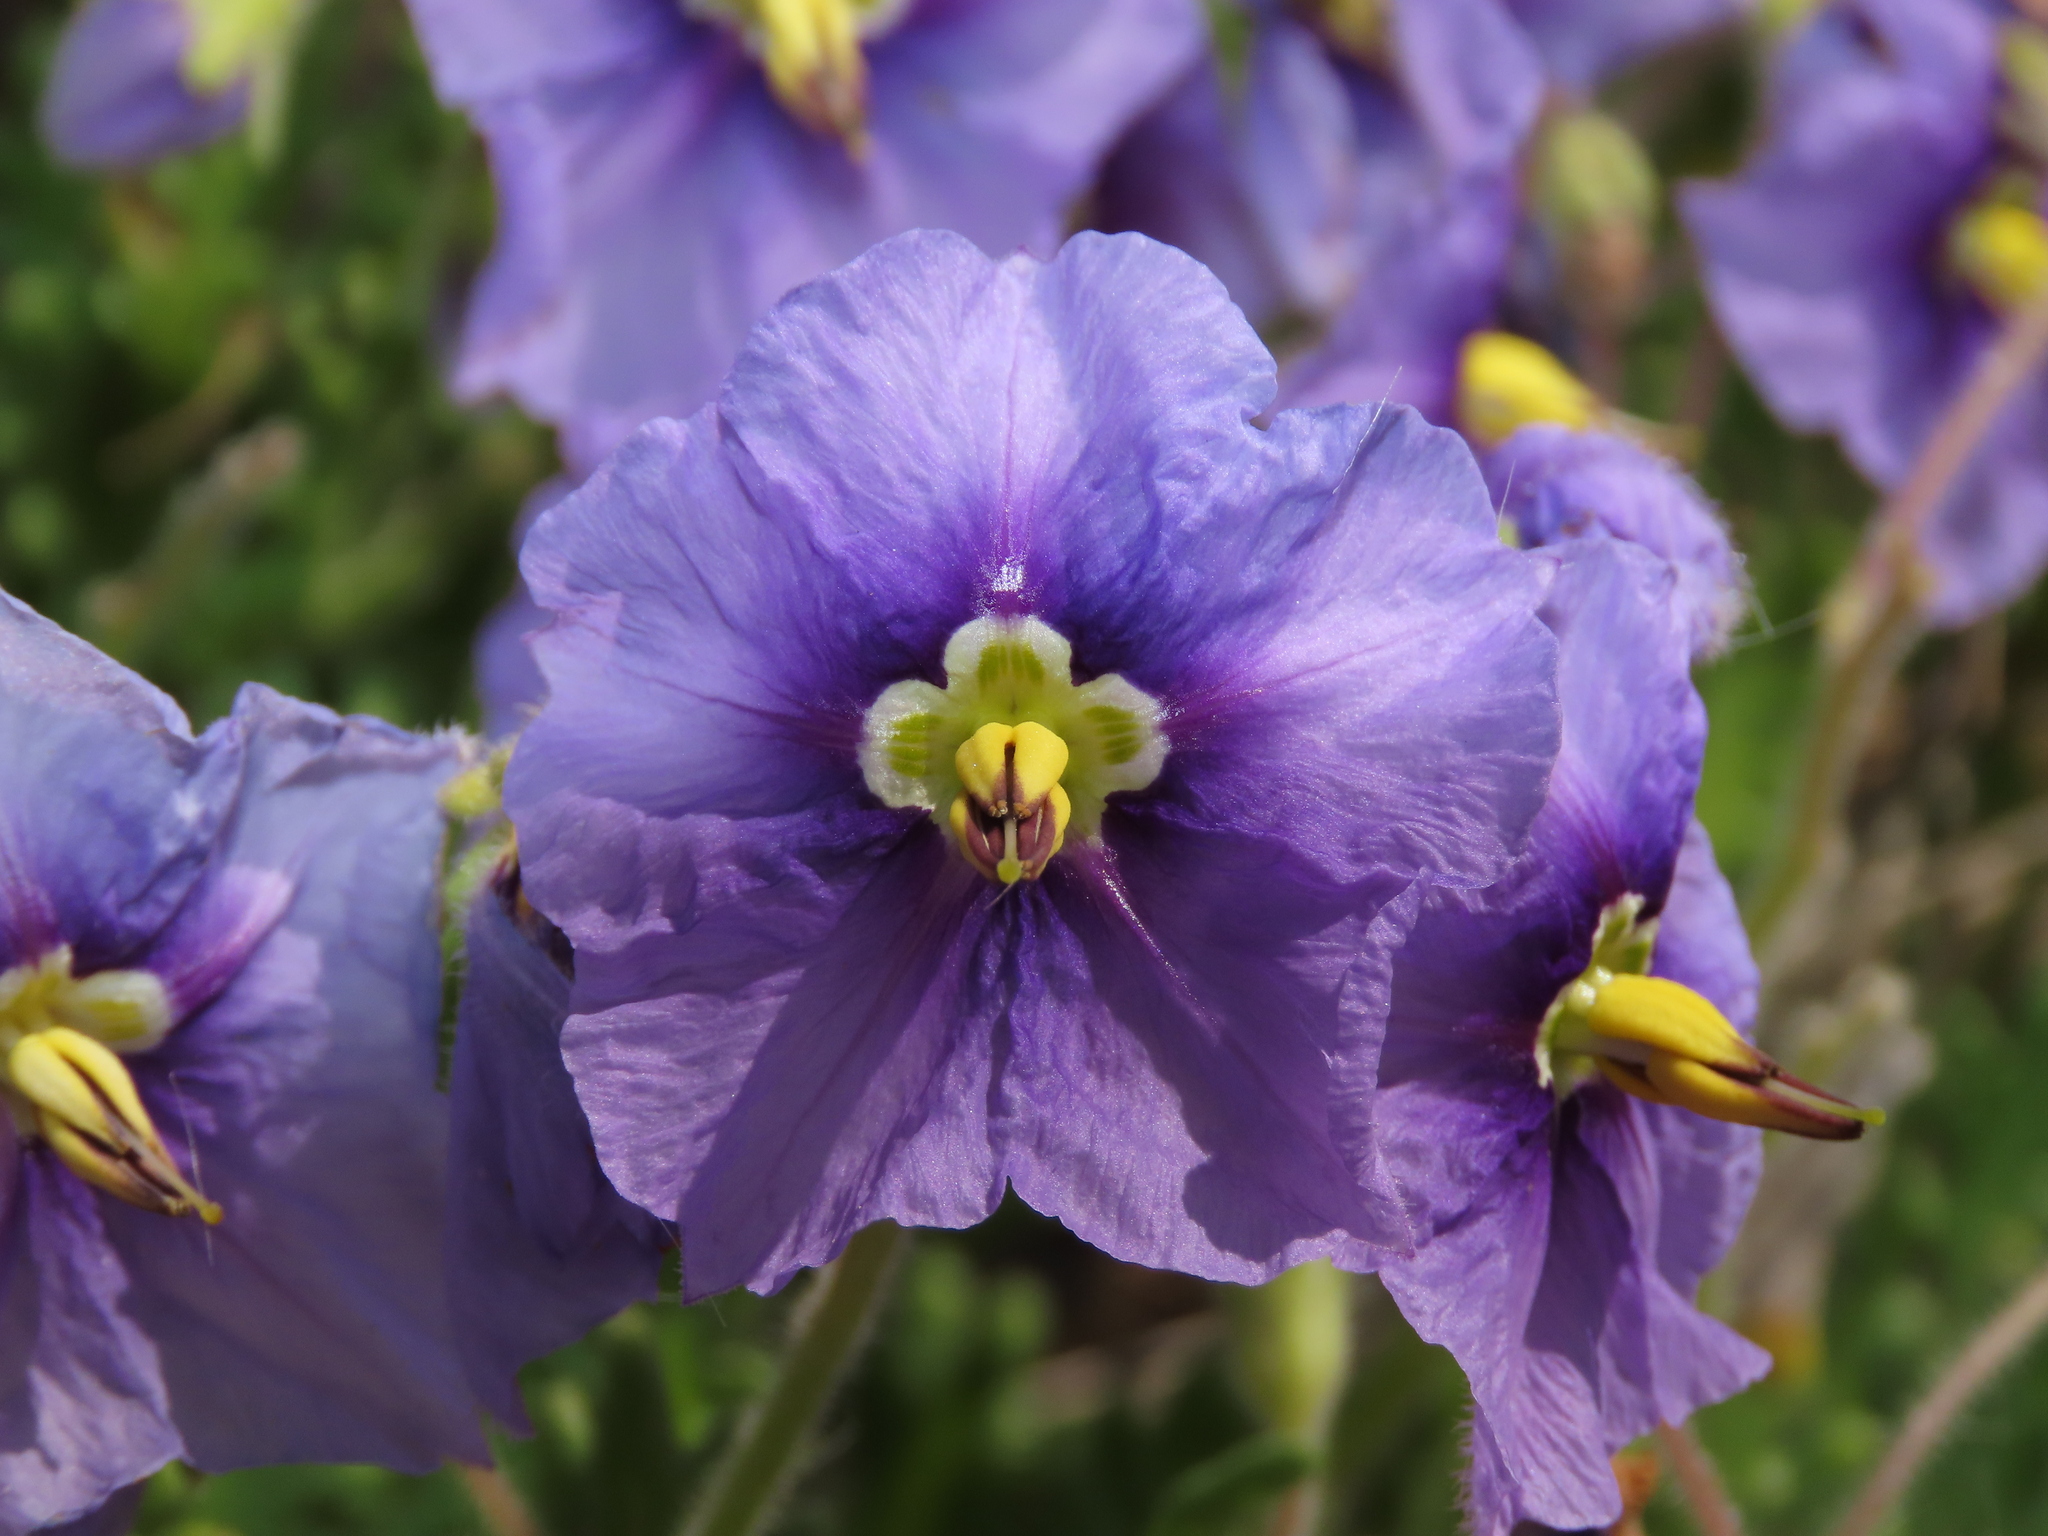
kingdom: Plantae
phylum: Tracheophyta
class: Magnoliopsida
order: Solanales
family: Solanaceae
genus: Solanum
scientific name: Solanum trinominum
